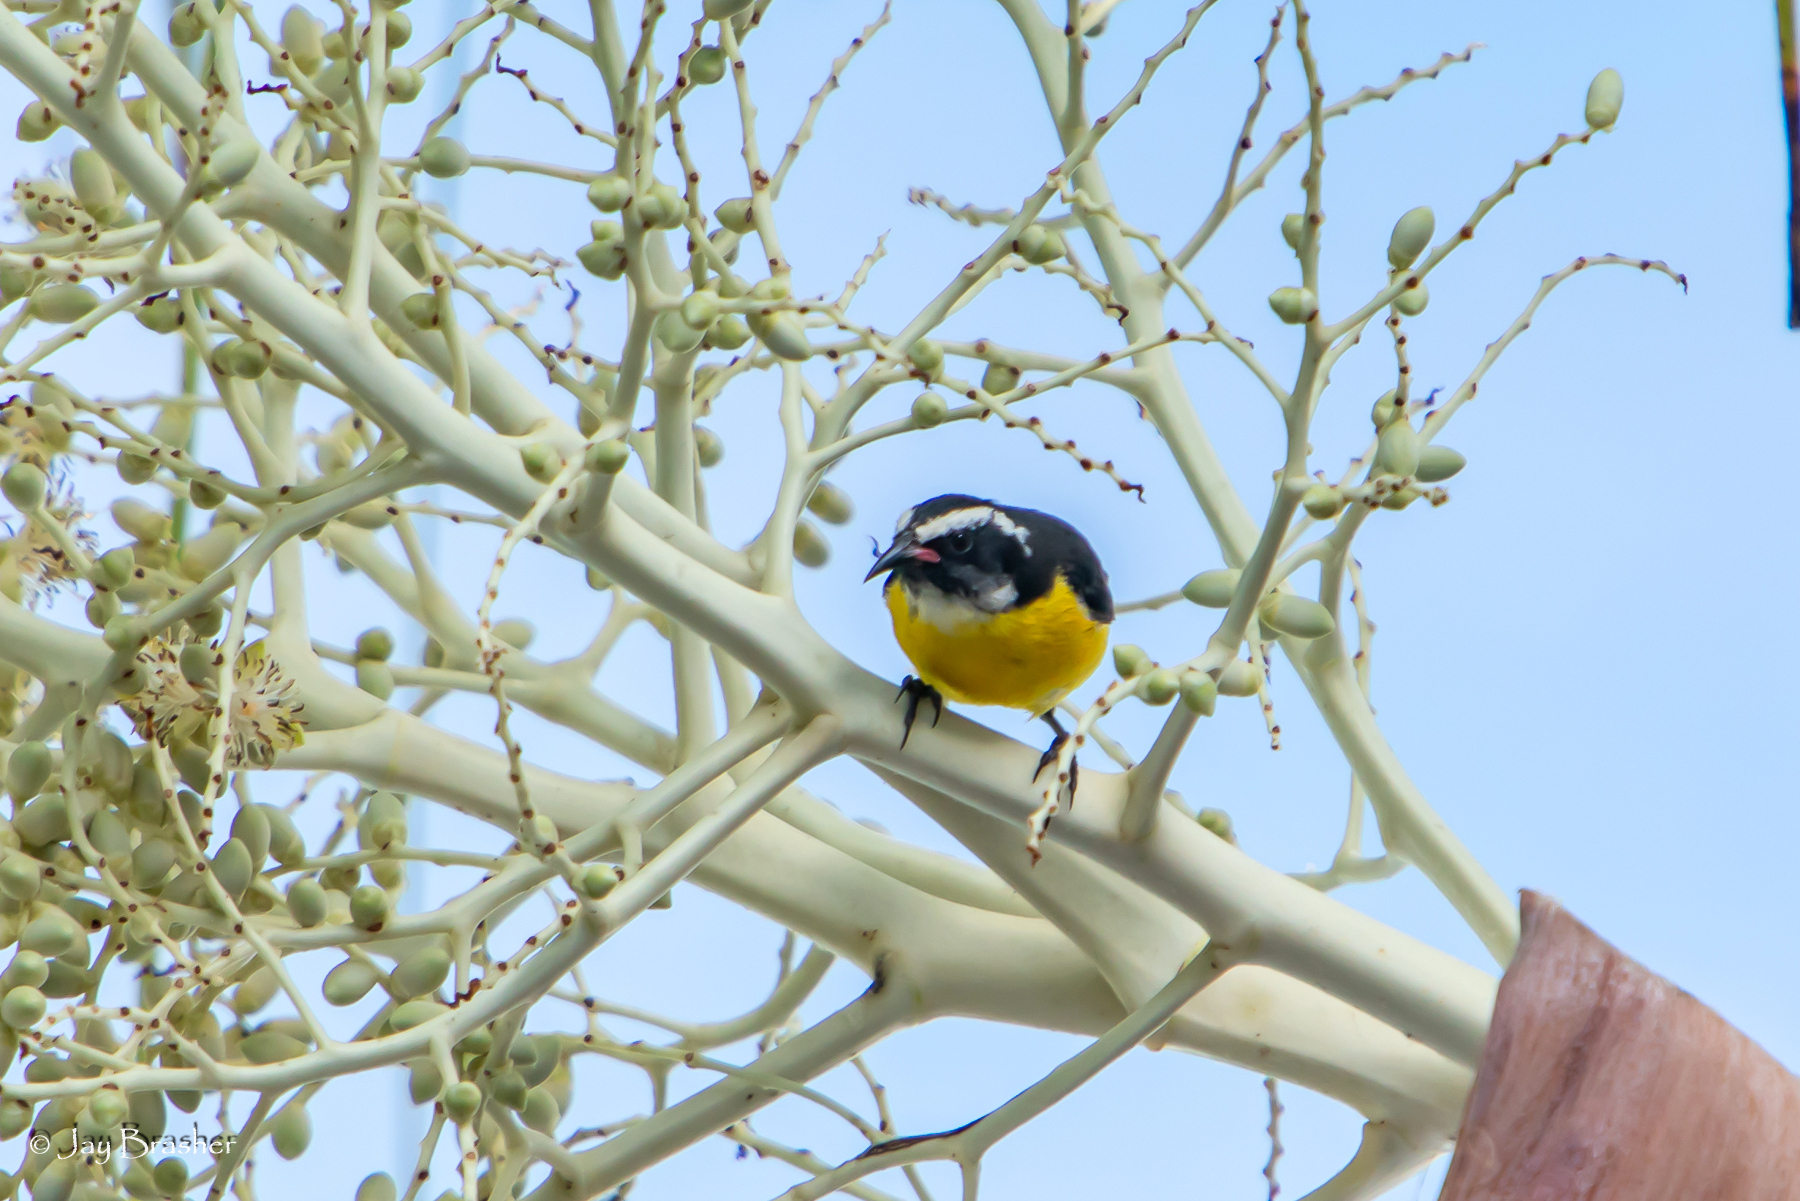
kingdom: Animalia
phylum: Chordata
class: Aves
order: Passeriformes
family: Thraupidae
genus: Coereba
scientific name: Coereba flaveola
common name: Bananaquit
